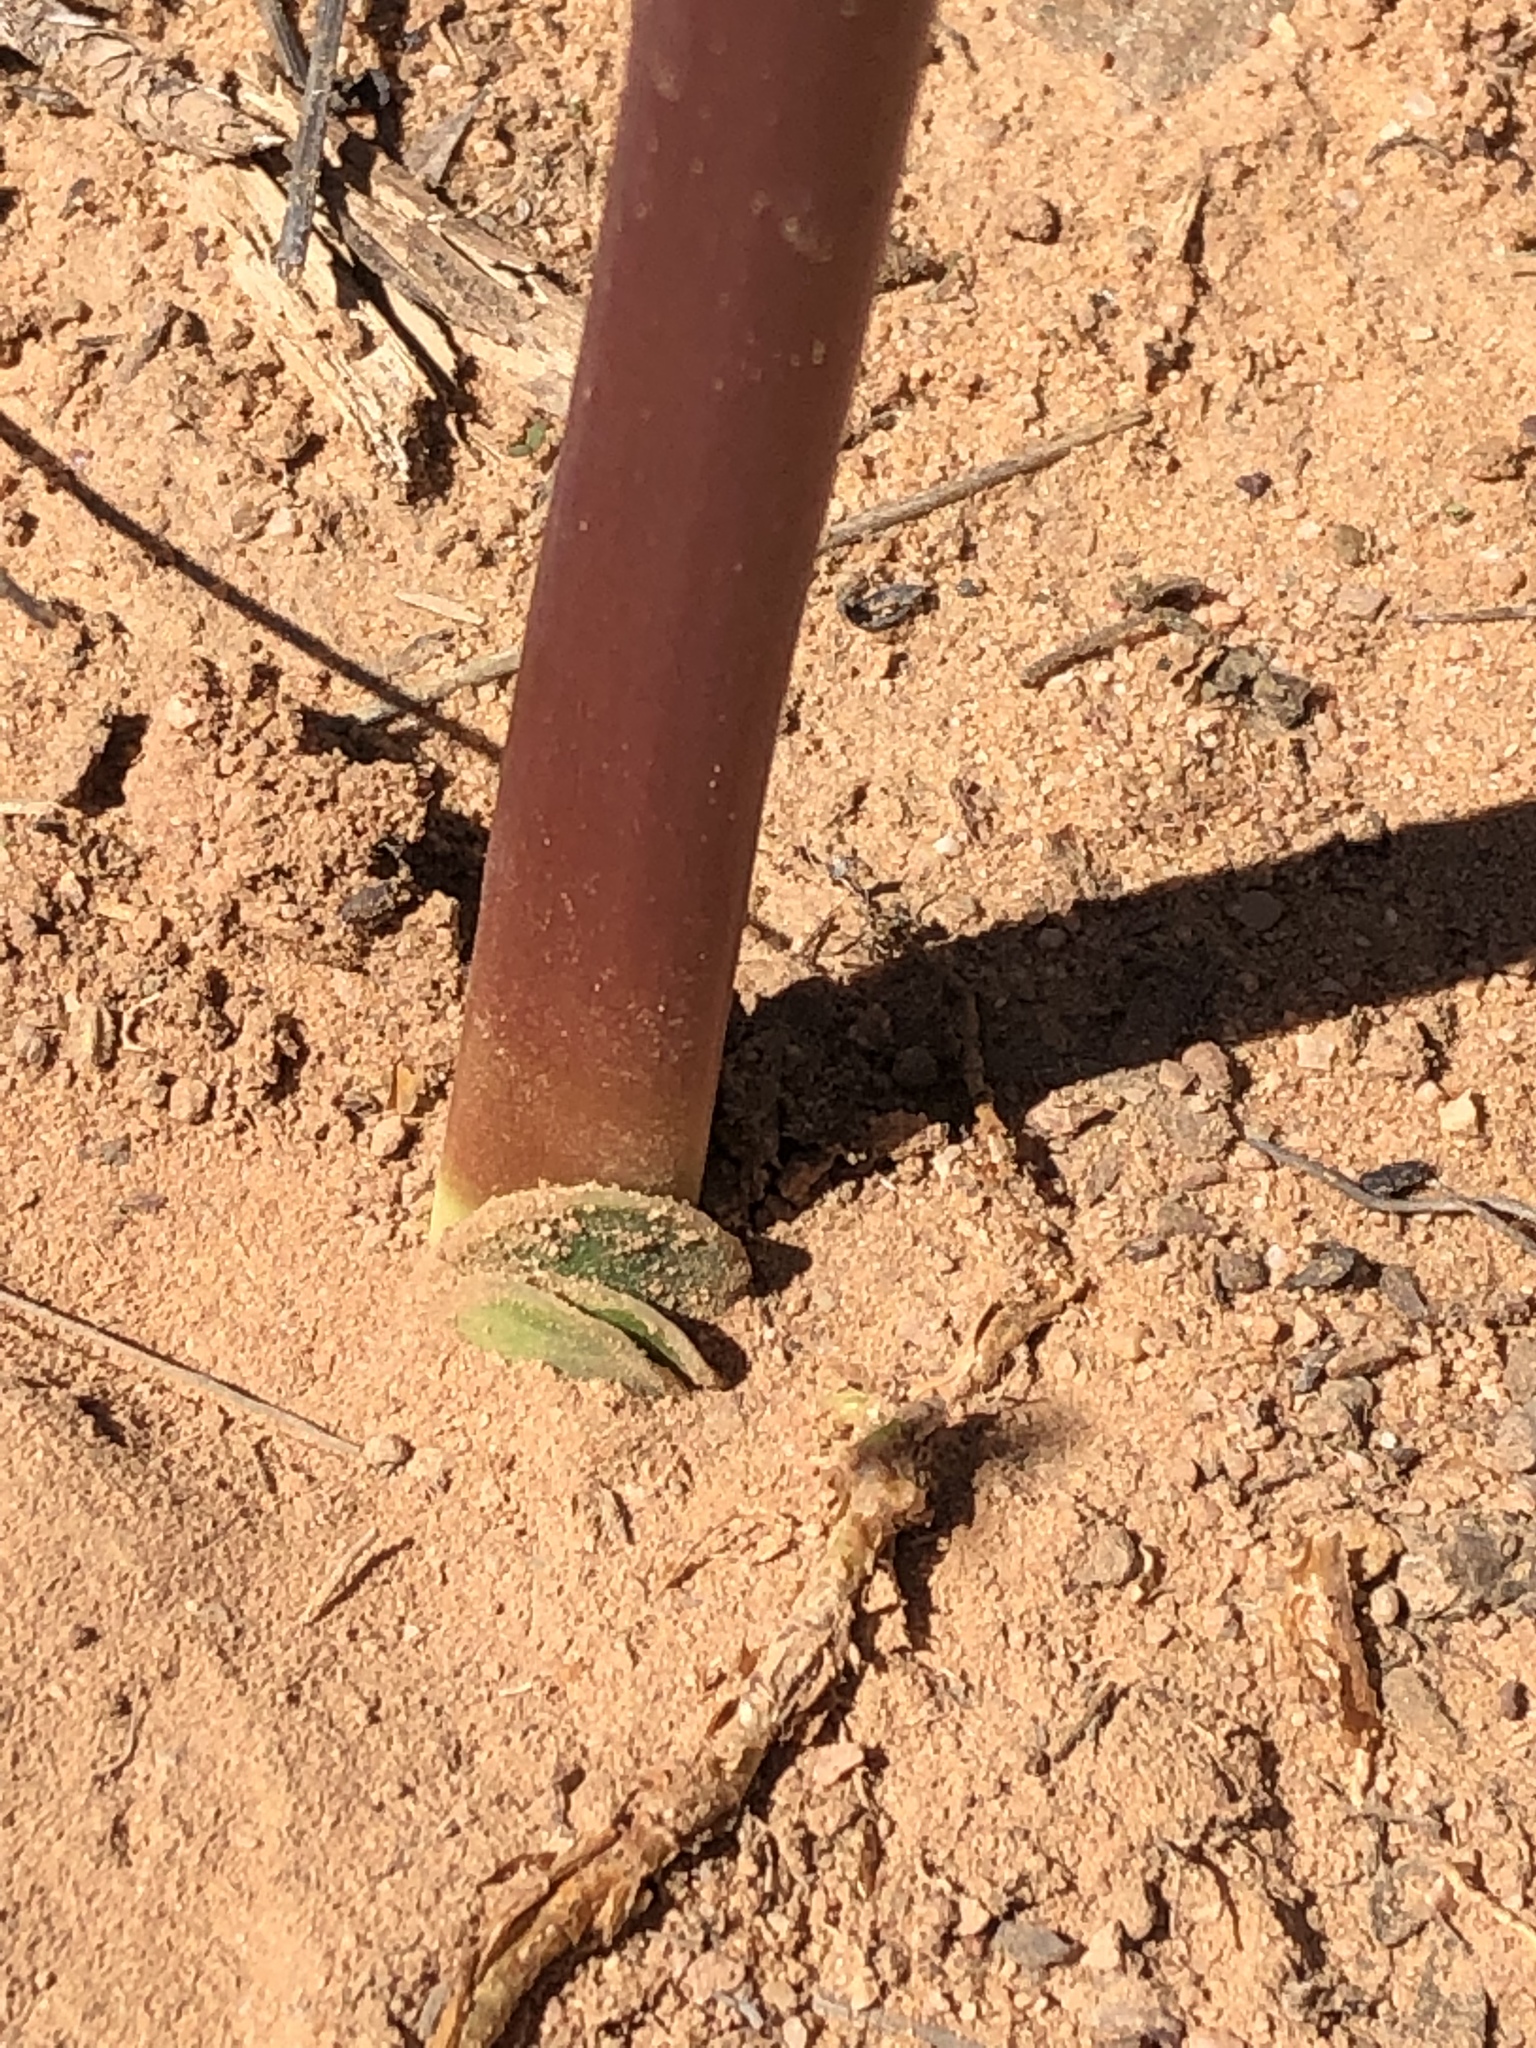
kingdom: Plantae
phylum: Tracheophyta
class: Liliopsida
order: Asparagales
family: Amaryllidaceae
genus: Brunsvigia
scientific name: Brunsvigia gregaria
